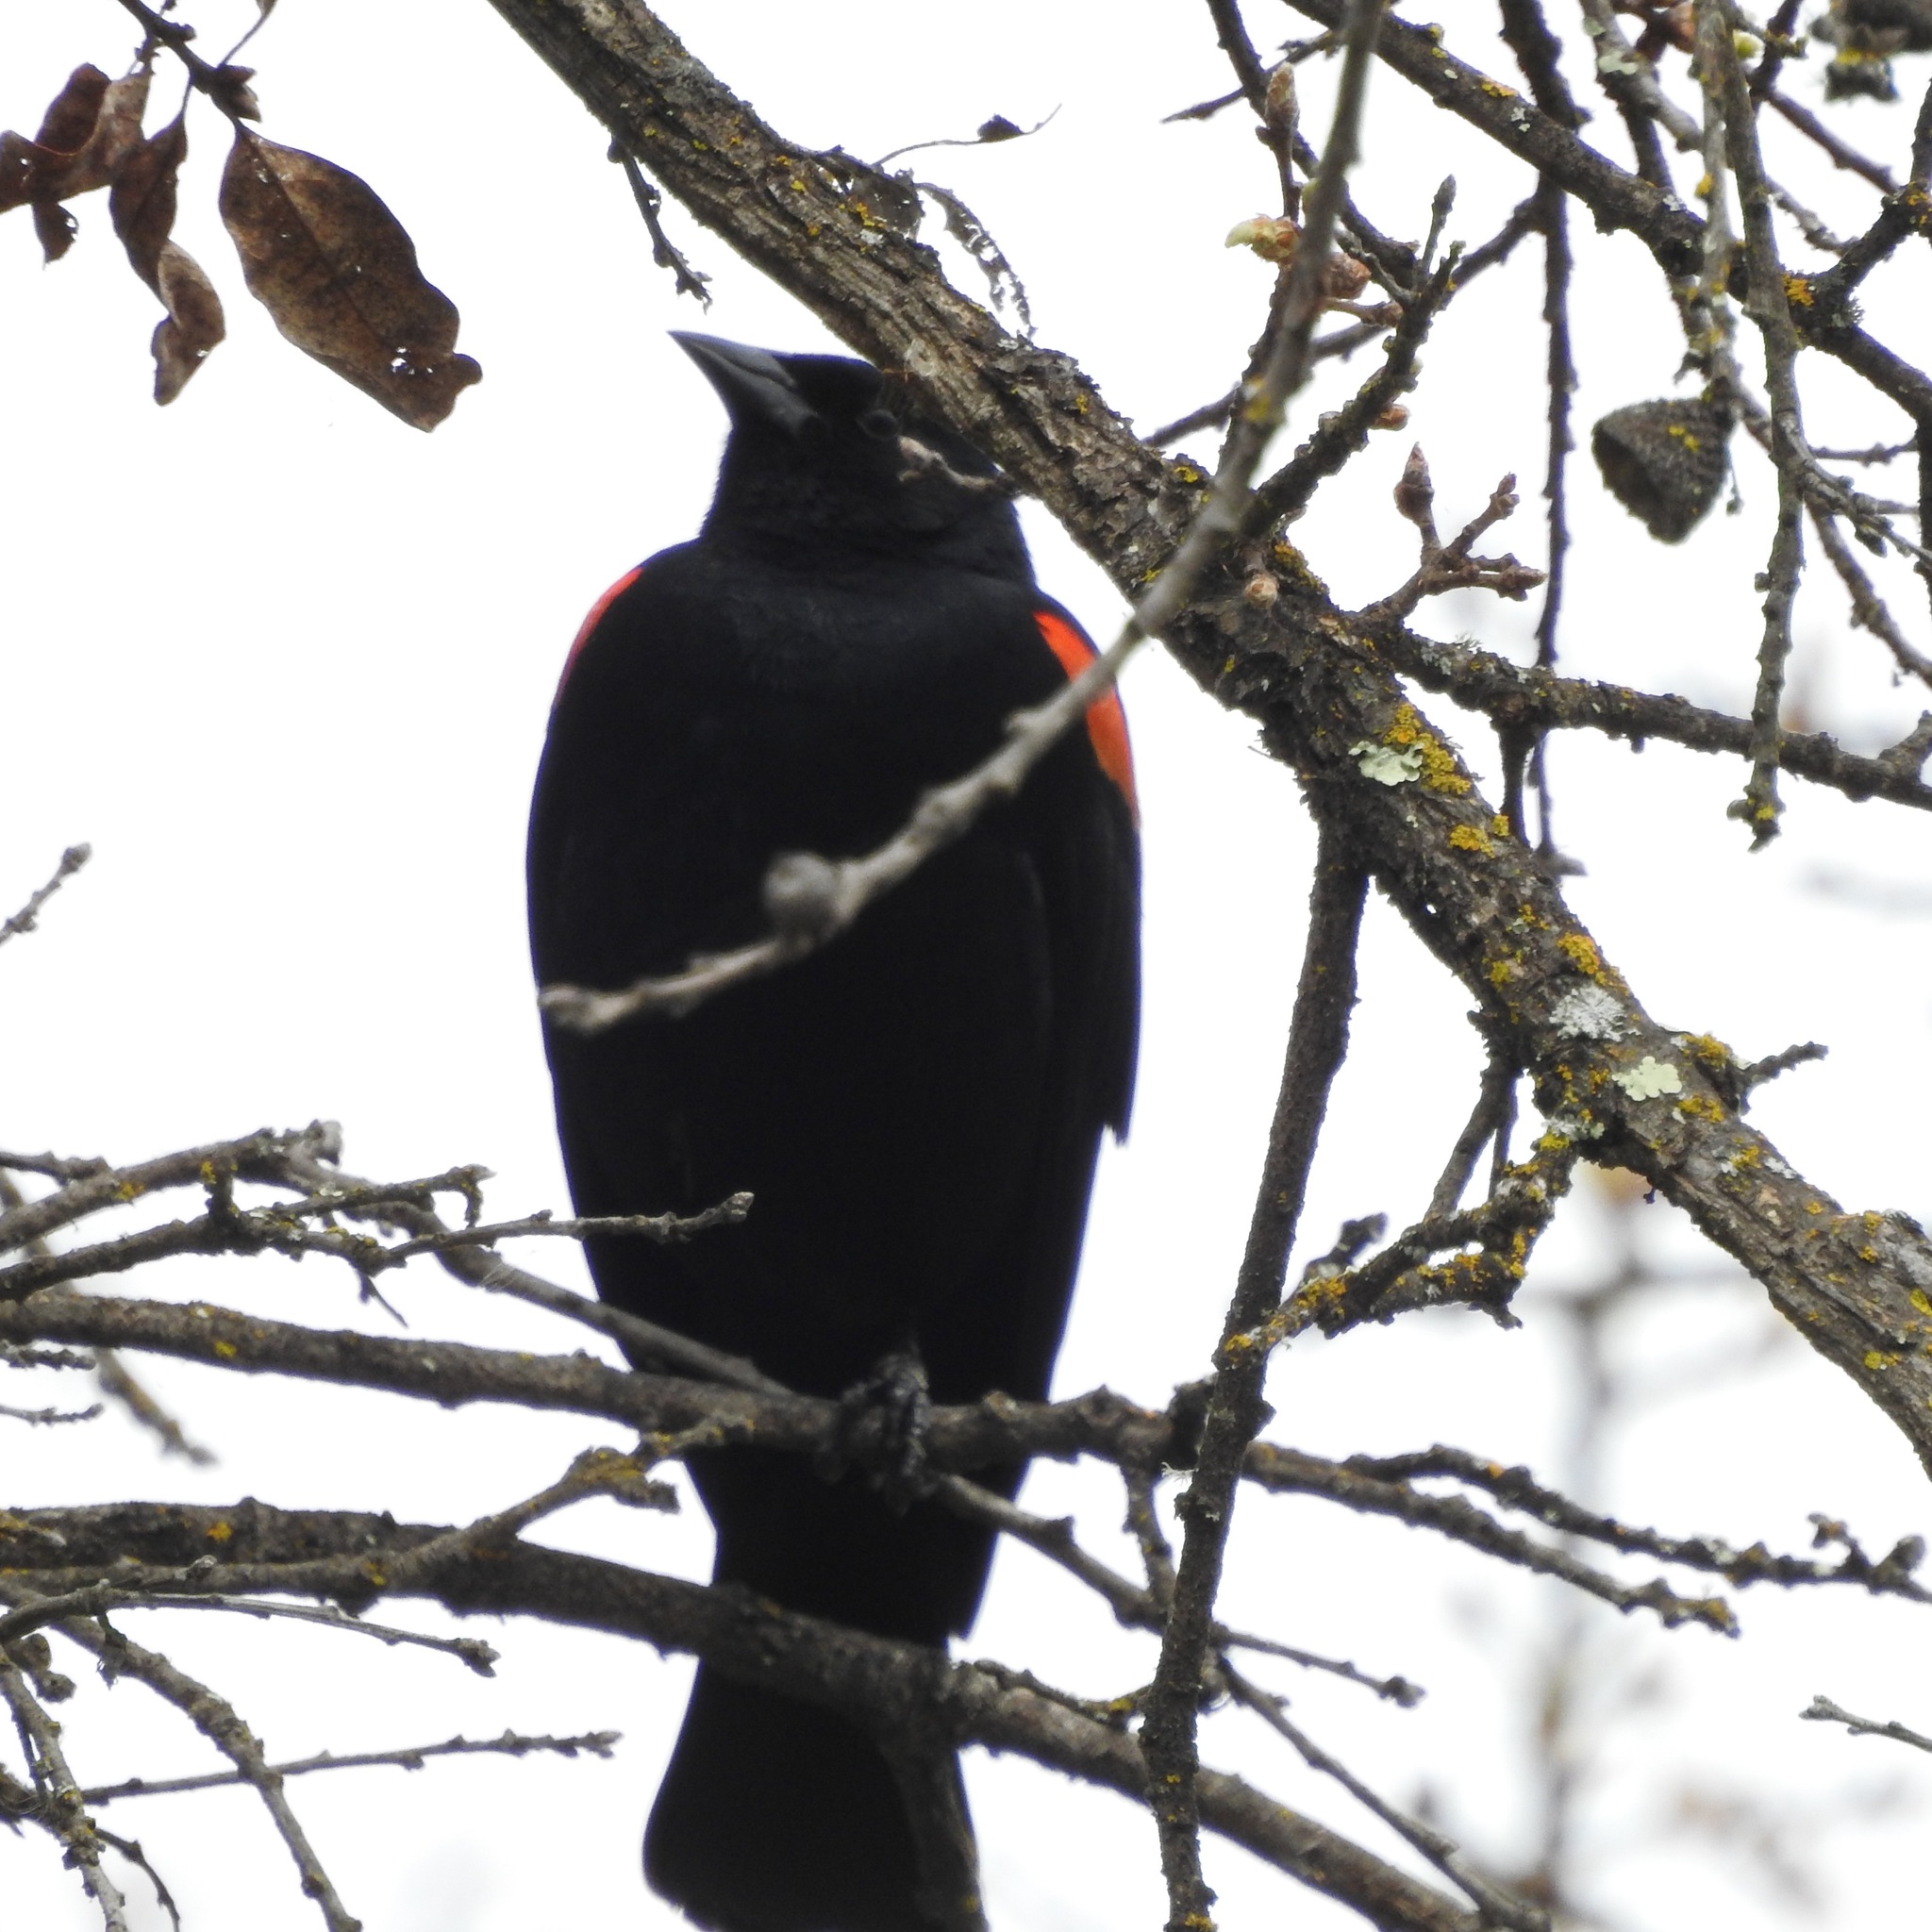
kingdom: Animalia
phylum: Chordata
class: Aves
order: Passeriformes
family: Icteridae
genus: Agelaius
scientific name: Agelaius phoeniceus
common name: Red-winged blackbird
